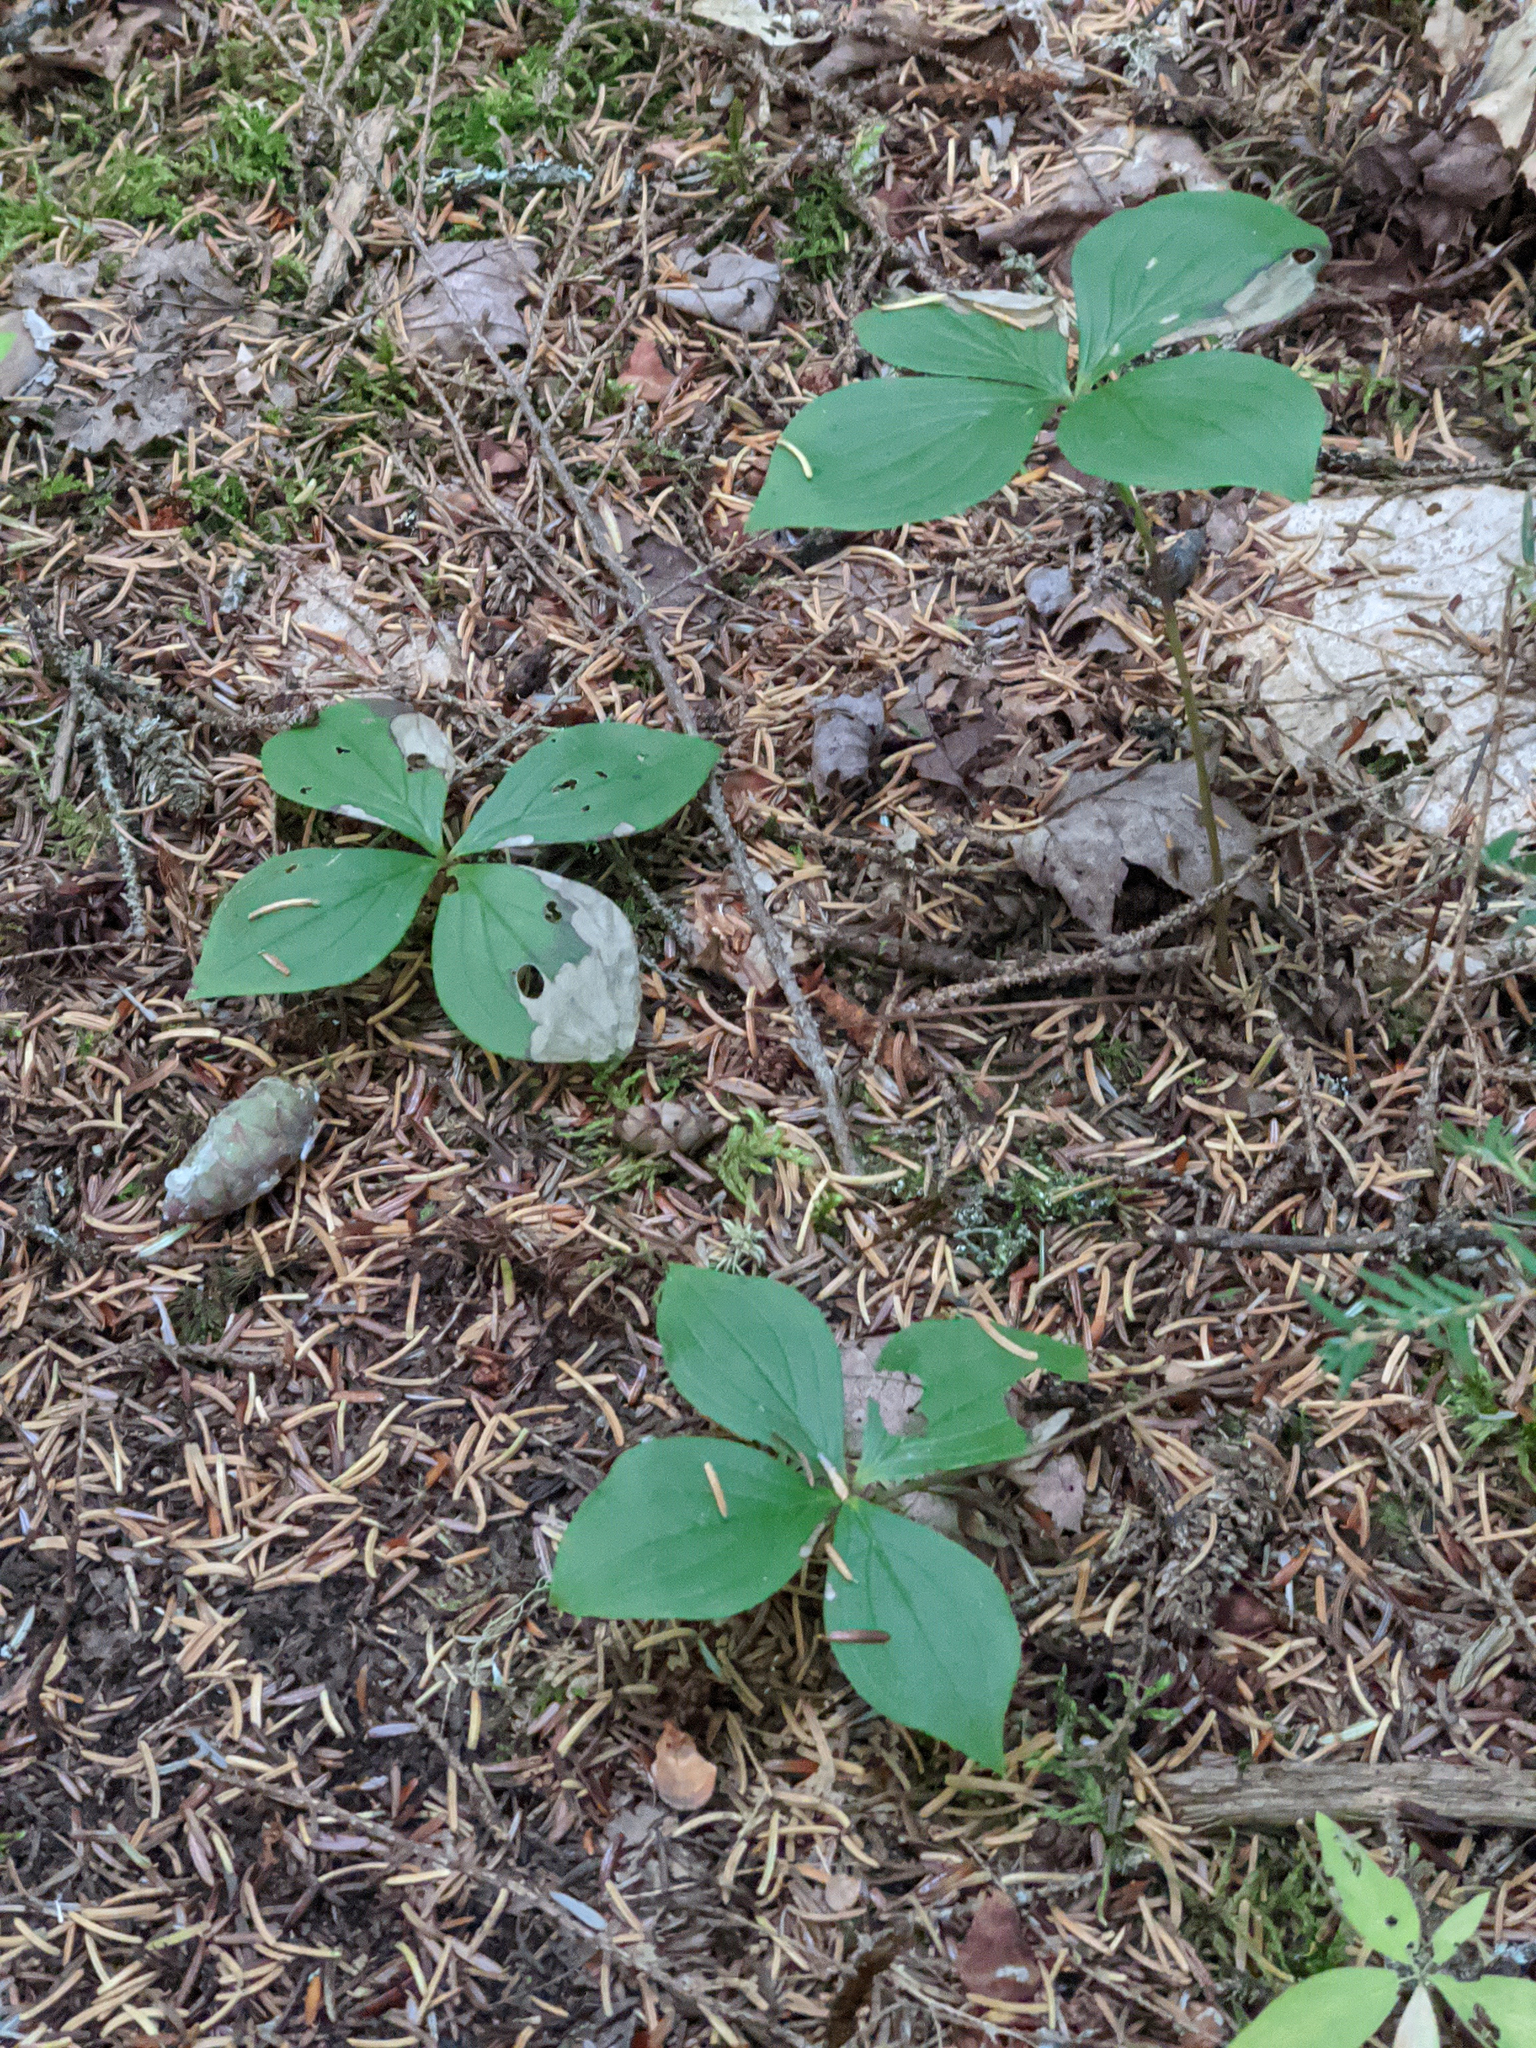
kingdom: Plantae
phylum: Tracheophyta
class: Magnoliopsida
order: Cornales
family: Cornaceae
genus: Cornus
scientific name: Cornus canadensis
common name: Creeping dogwood
